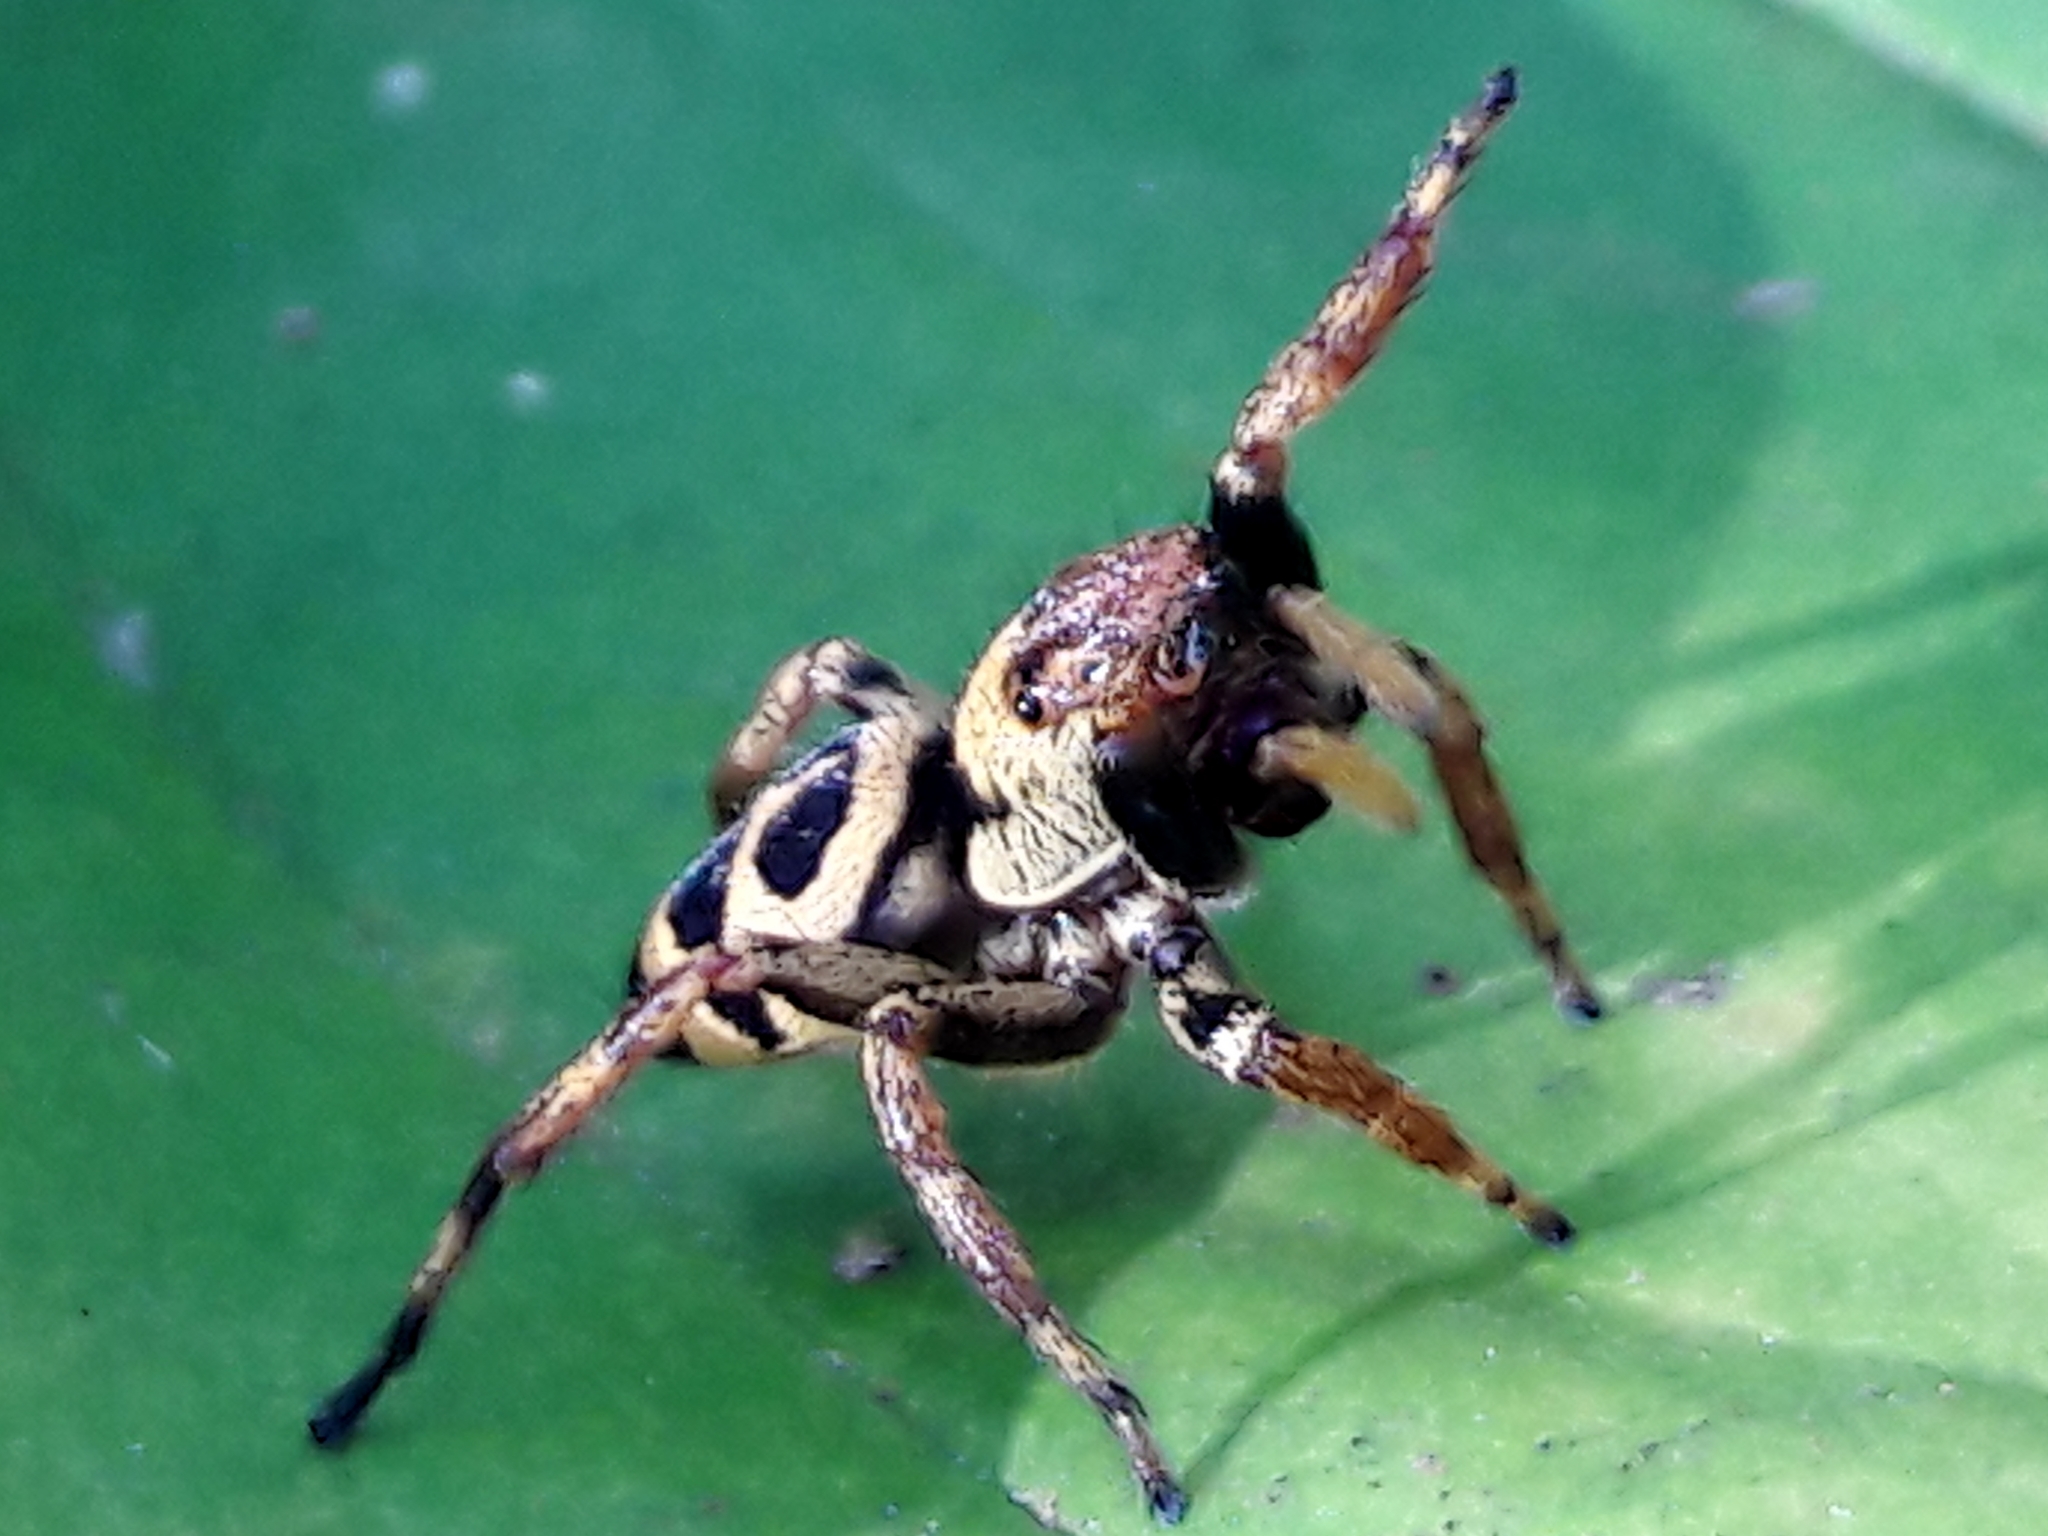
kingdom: Animalia
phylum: Arthropoda
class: Arachnida
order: Araneae
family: Salticidae
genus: Phiale
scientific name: Phiale tristis
